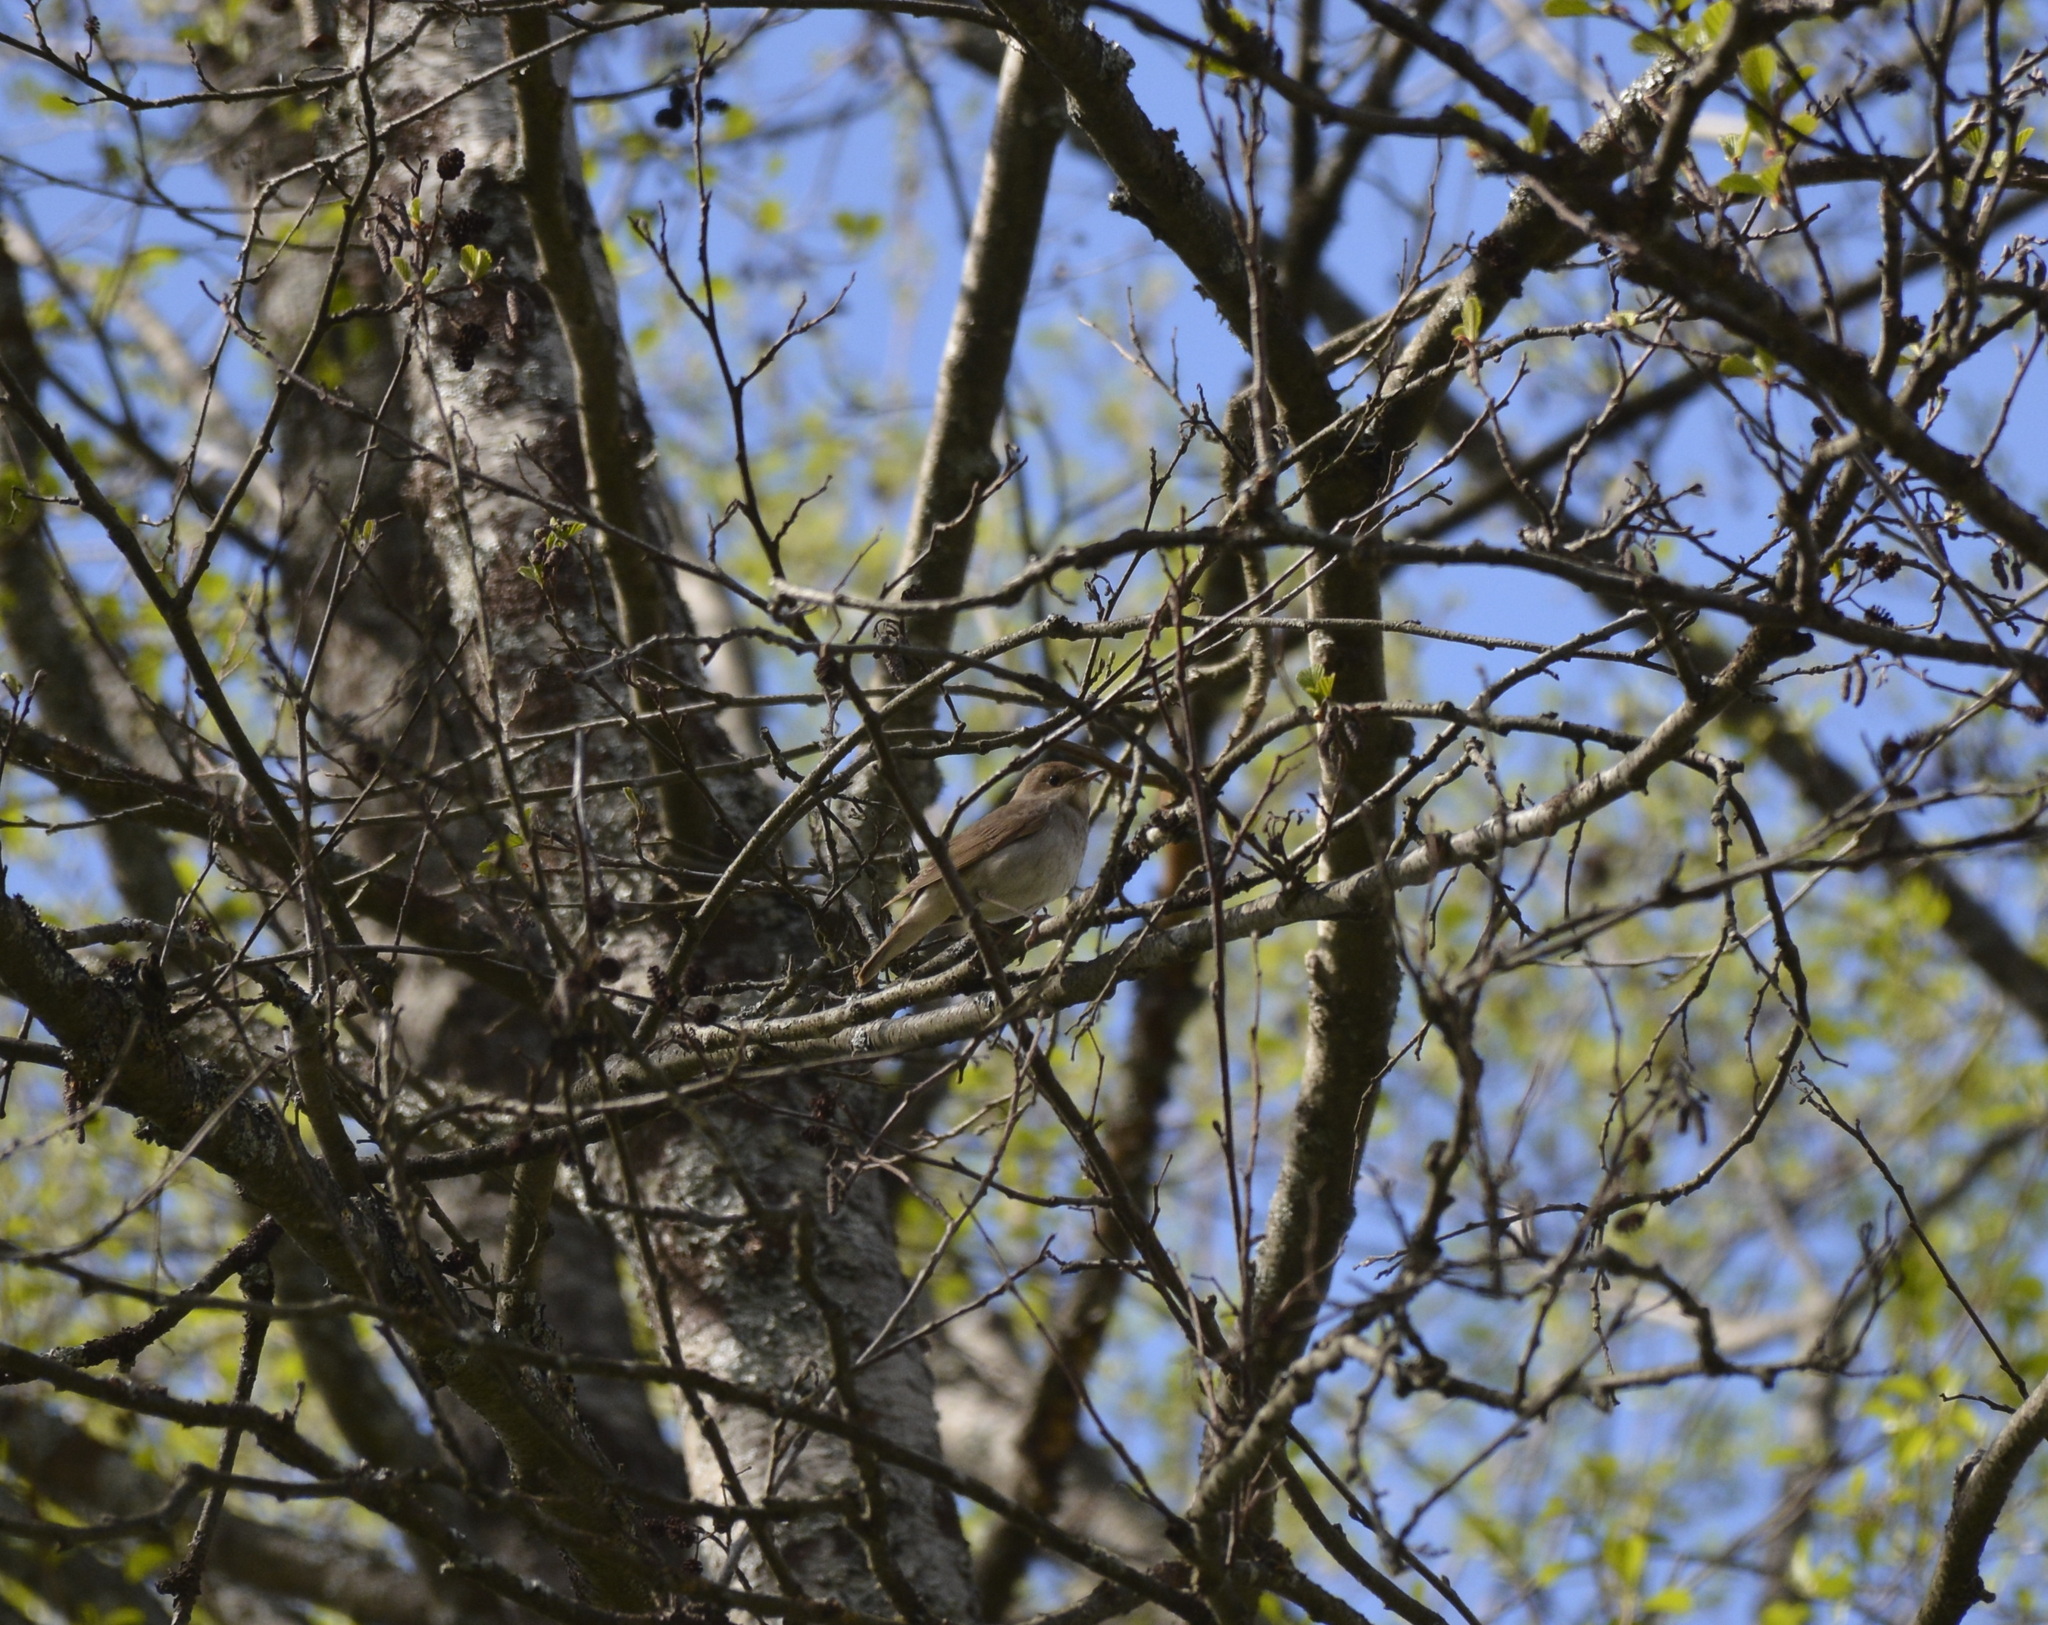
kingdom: Animalia
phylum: Chordata
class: Aves
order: Passeriformes
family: Muscicapidae
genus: Luscinia
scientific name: Luscinia luscinia
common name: Thrush nightingale
